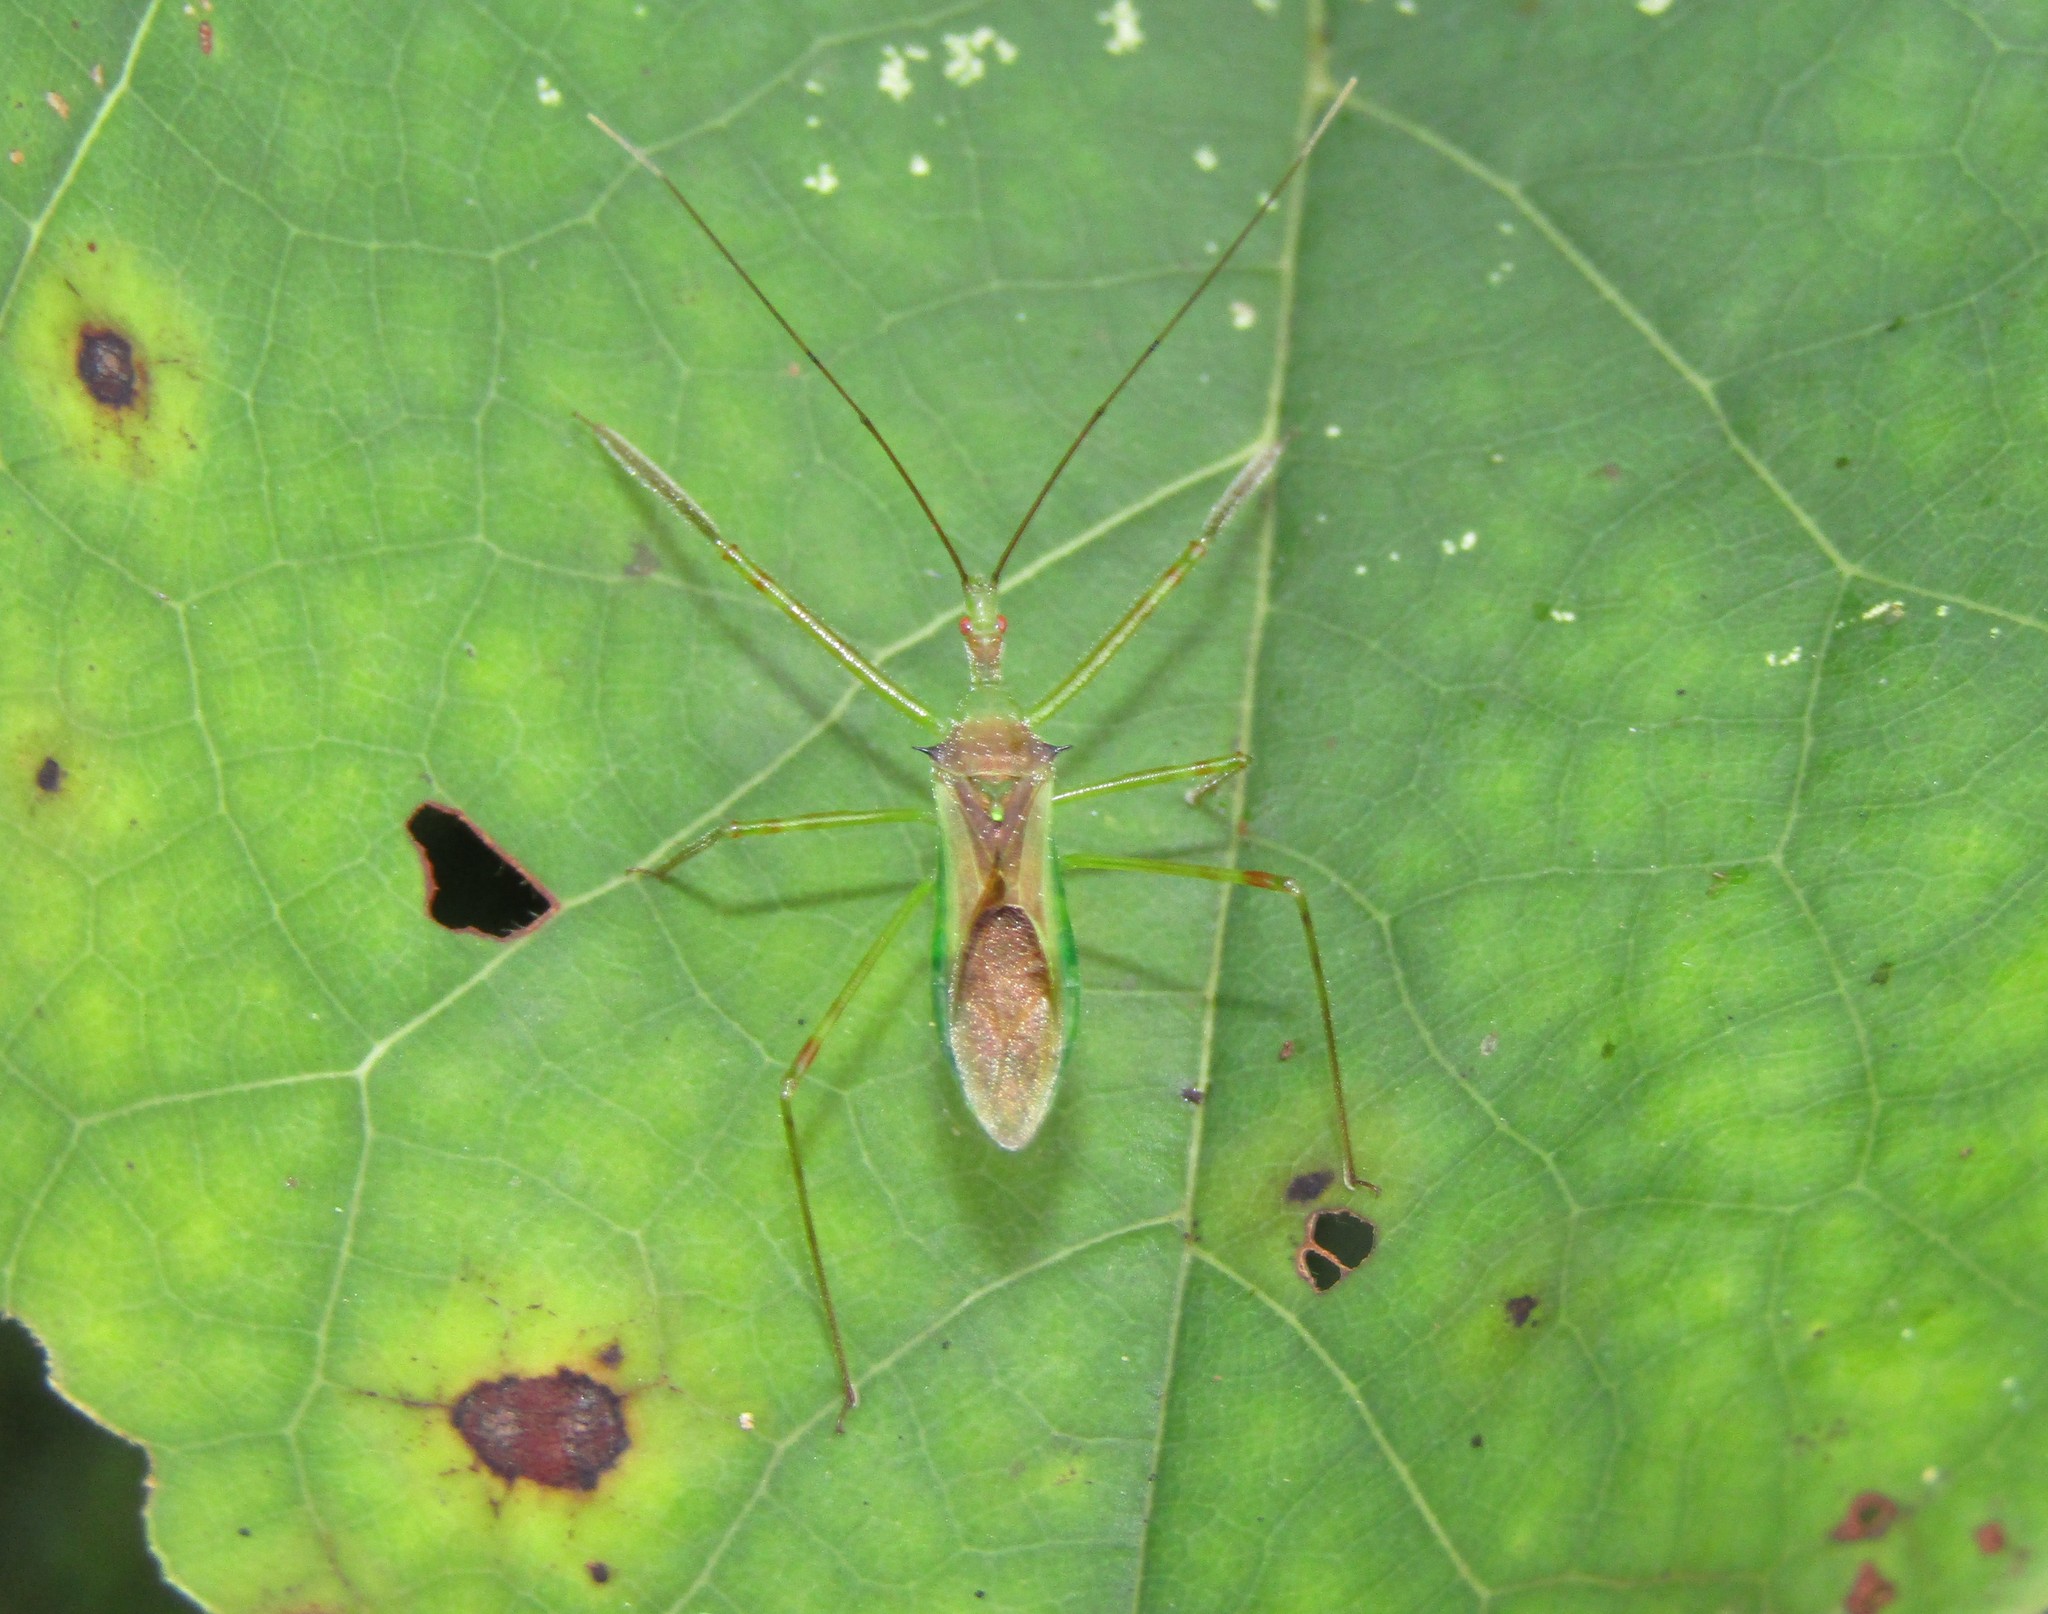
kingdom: Animalia
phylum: Arthropoda
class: Insecta
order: Hemiptera
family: Reduviidae
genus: Zelus
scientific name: Zelus luridus
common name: Pale green assassin bug
